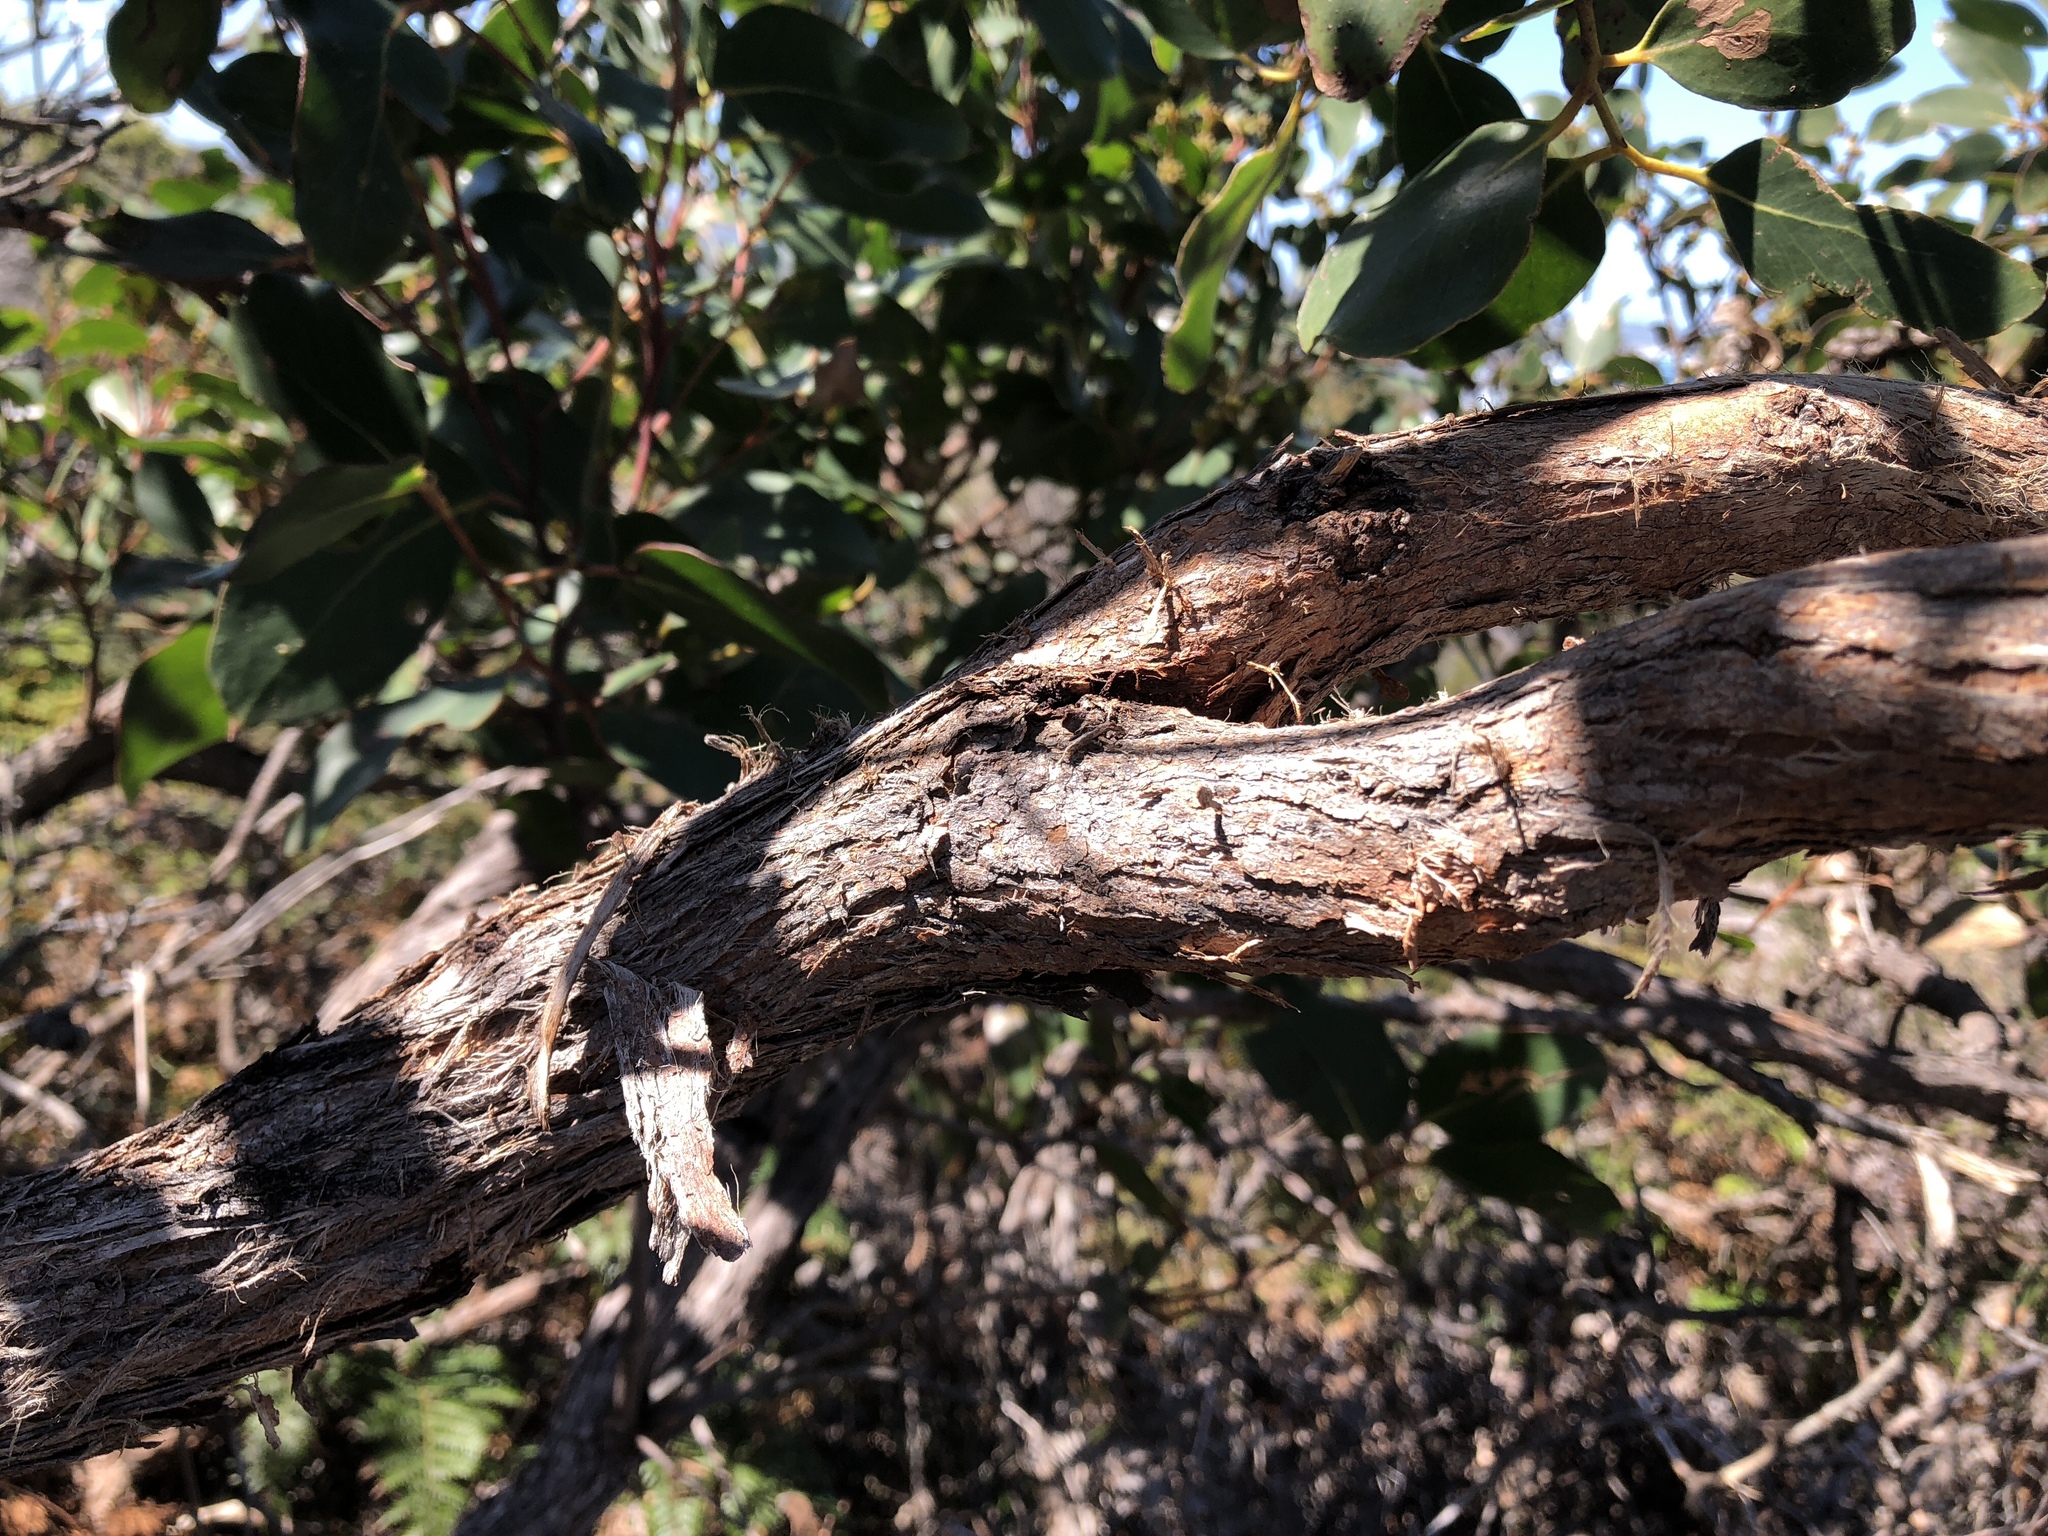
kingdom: Plantae
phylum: Tracheophyta
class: Magnoliopsida
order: Myrtales
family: Myrtaceae
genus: Eucalyptus
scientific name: Eucalyptus baxteri
